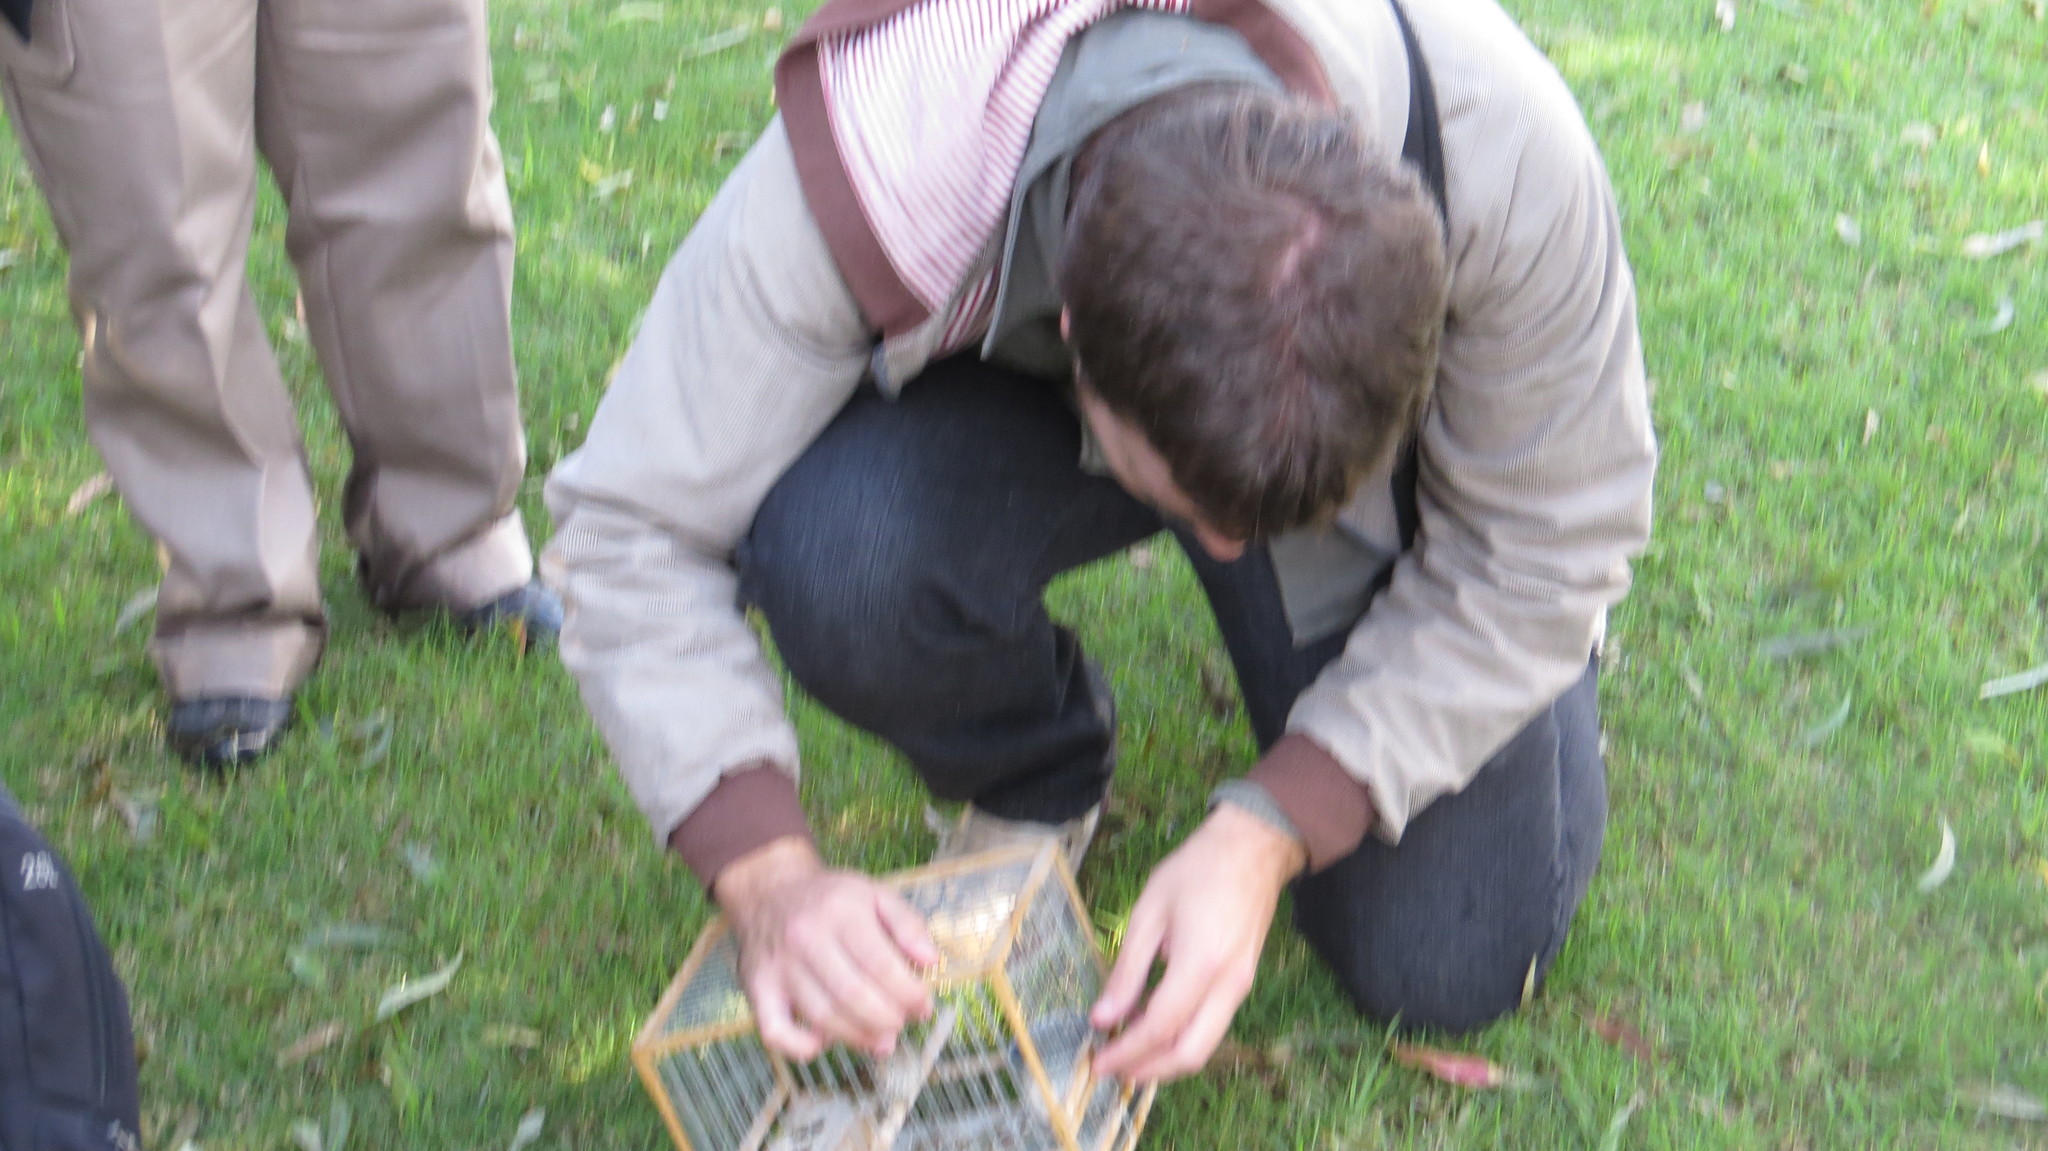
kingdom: Animalia
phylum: Chordata
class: Aves
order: Passeriformes
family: Thraupidae
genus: Sicalis
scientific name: Sicalis flaveola
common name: Saffron finch
